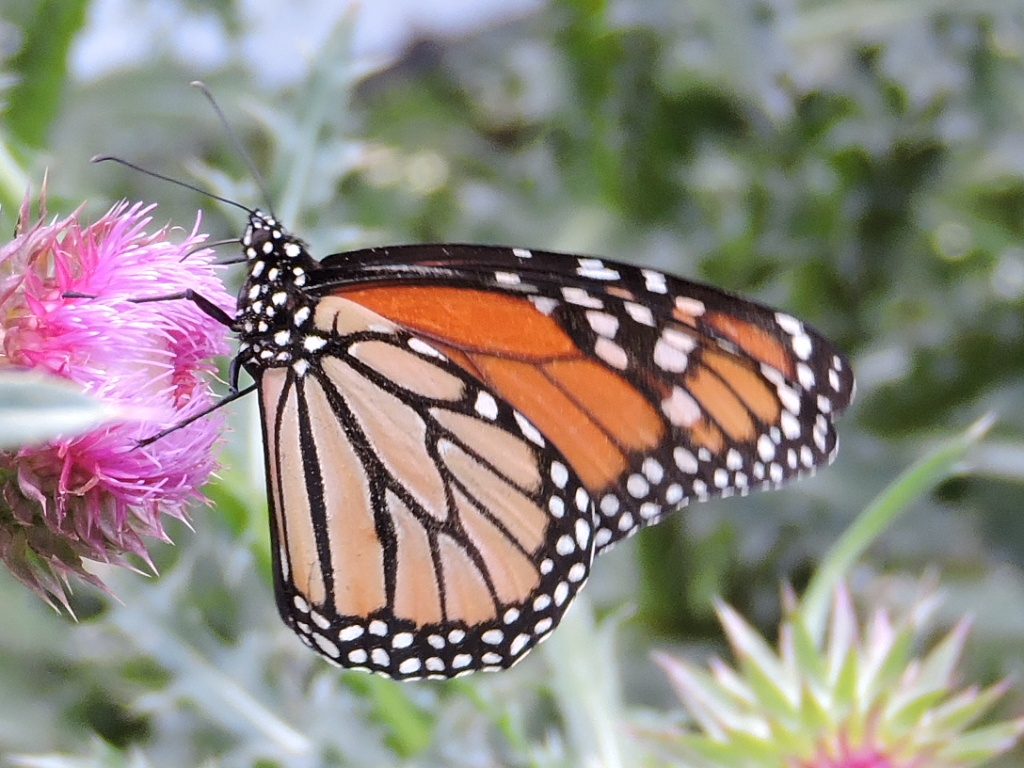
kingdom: Animalia
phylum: Arthropoda
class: Insecta
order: Lepidoptera
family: Nymphalidae
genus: Danaus
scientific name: Danaus plexippus
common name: Monarch
